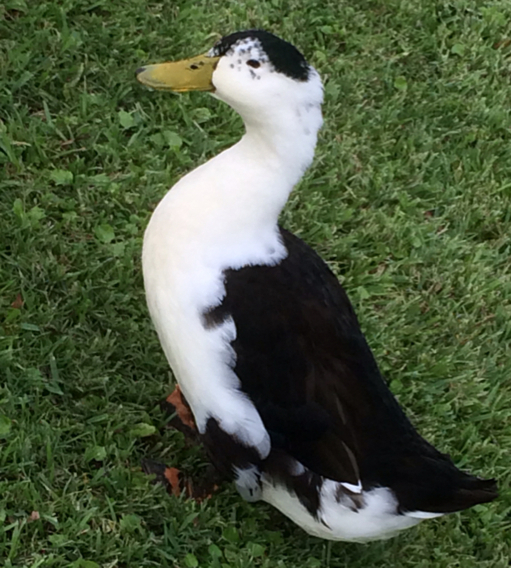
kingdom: Animalia
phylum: Chordata
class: Aves
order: Anseriformes
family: Anatidae
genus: Anas
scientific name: Anas platyrhynchos
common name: Mallard
